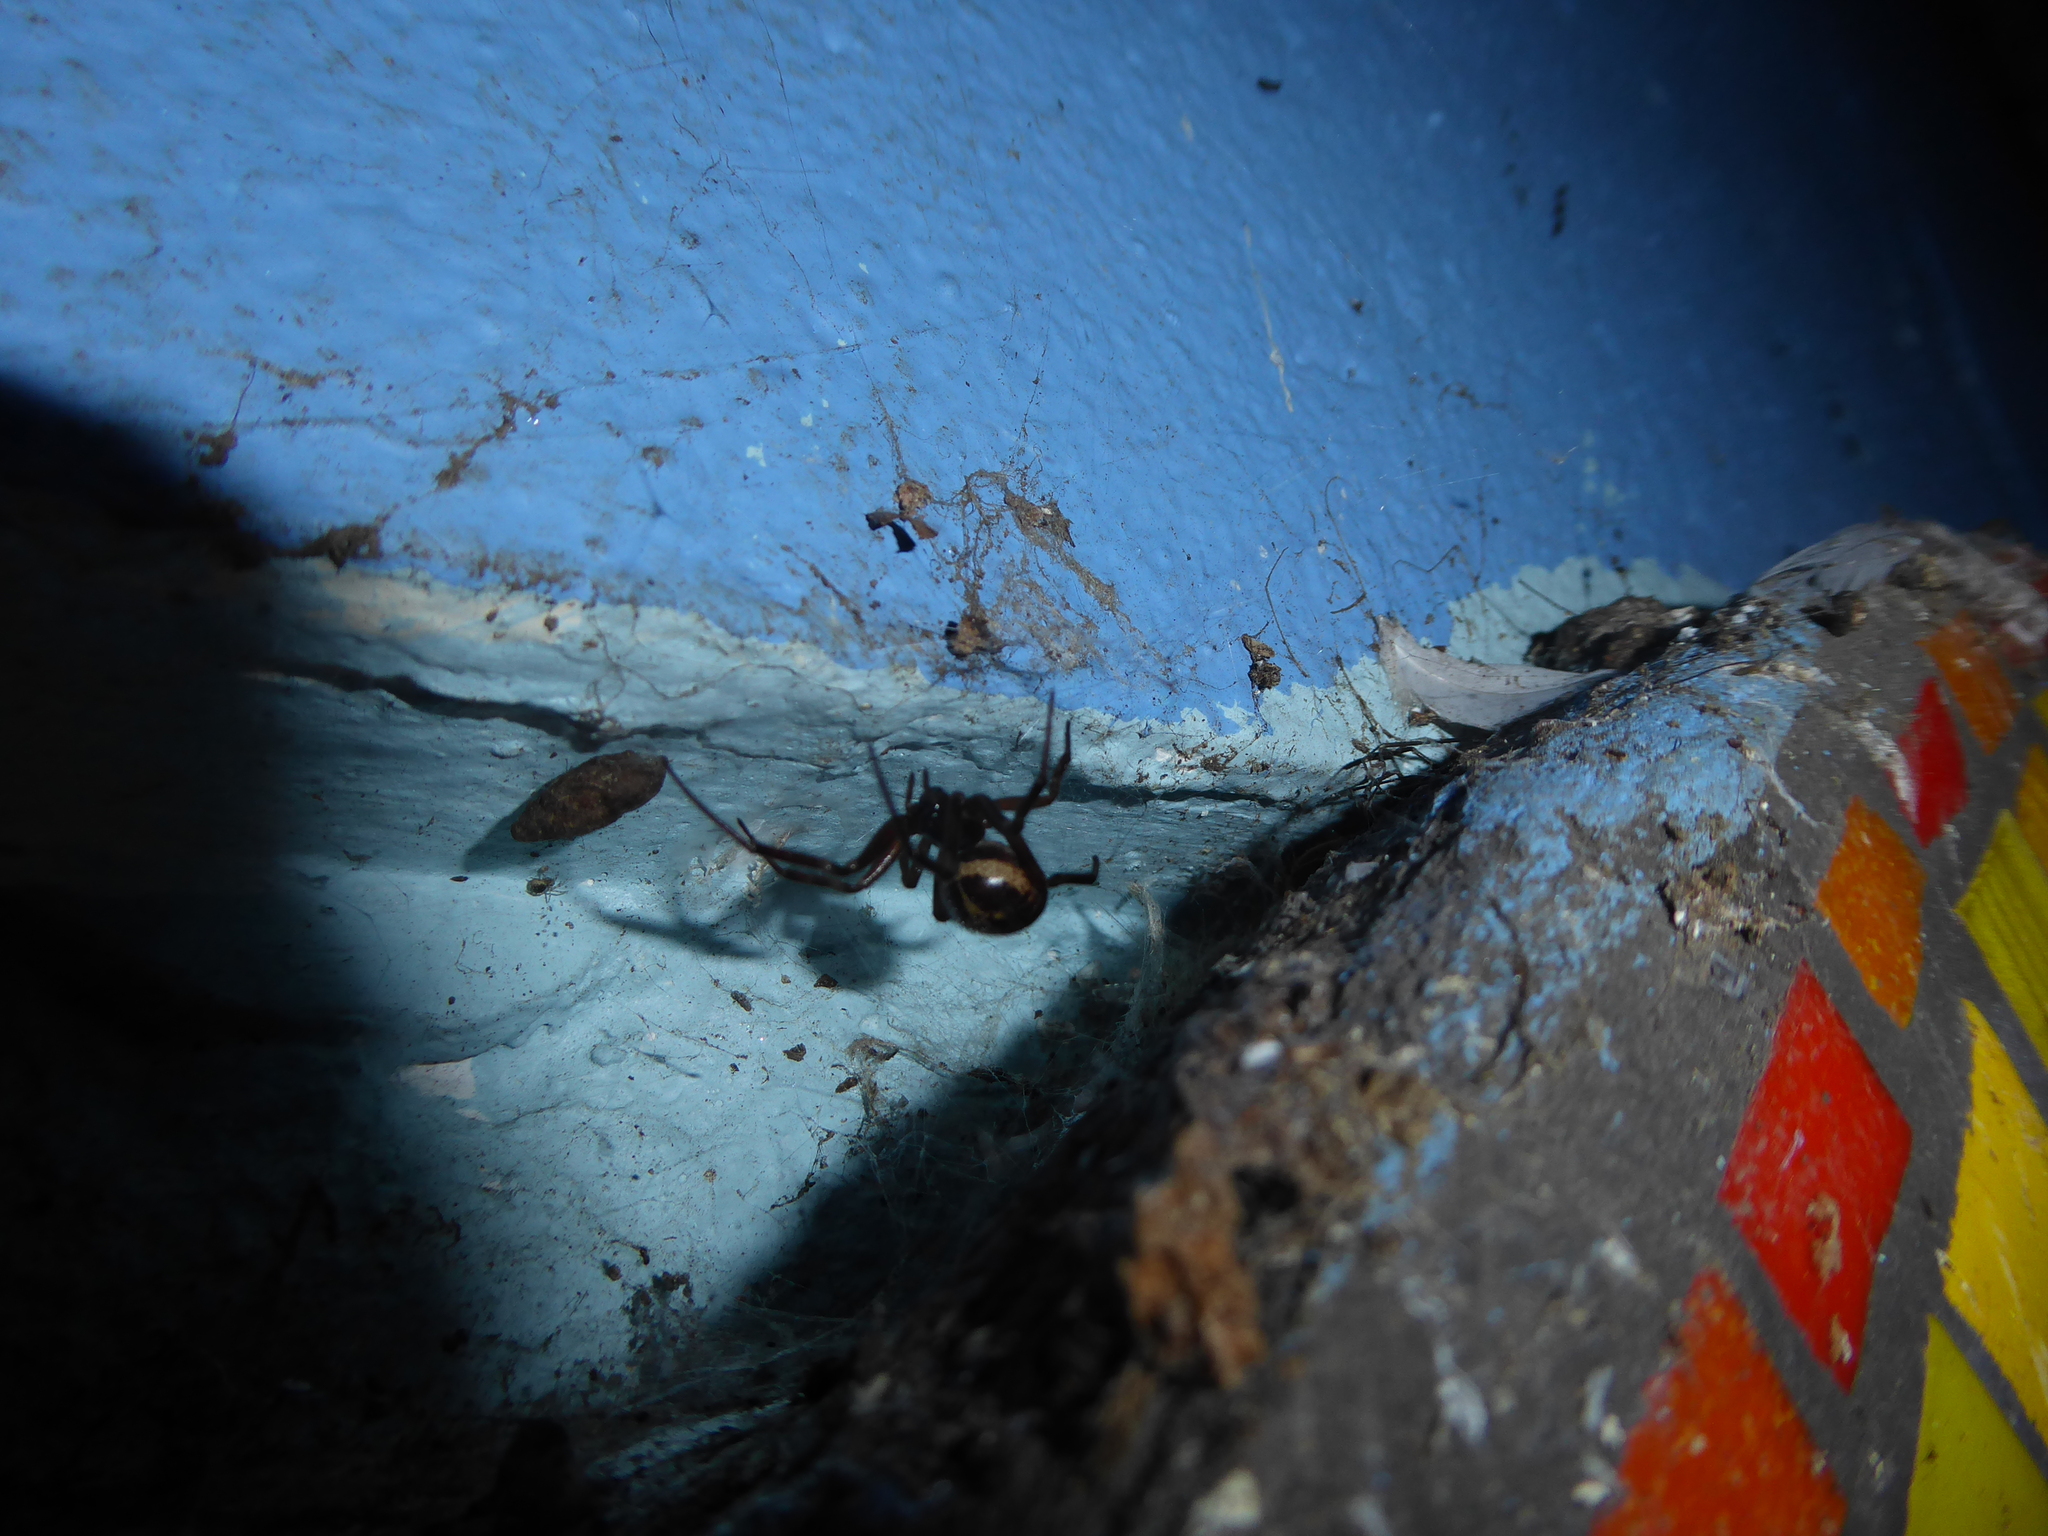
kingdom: Animalia
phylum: Arthropoda
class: Arachnida
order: Araneae
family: Theridiidae
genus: Steatoda
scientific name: Steatoda nobilis
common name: Cobweb weaver
